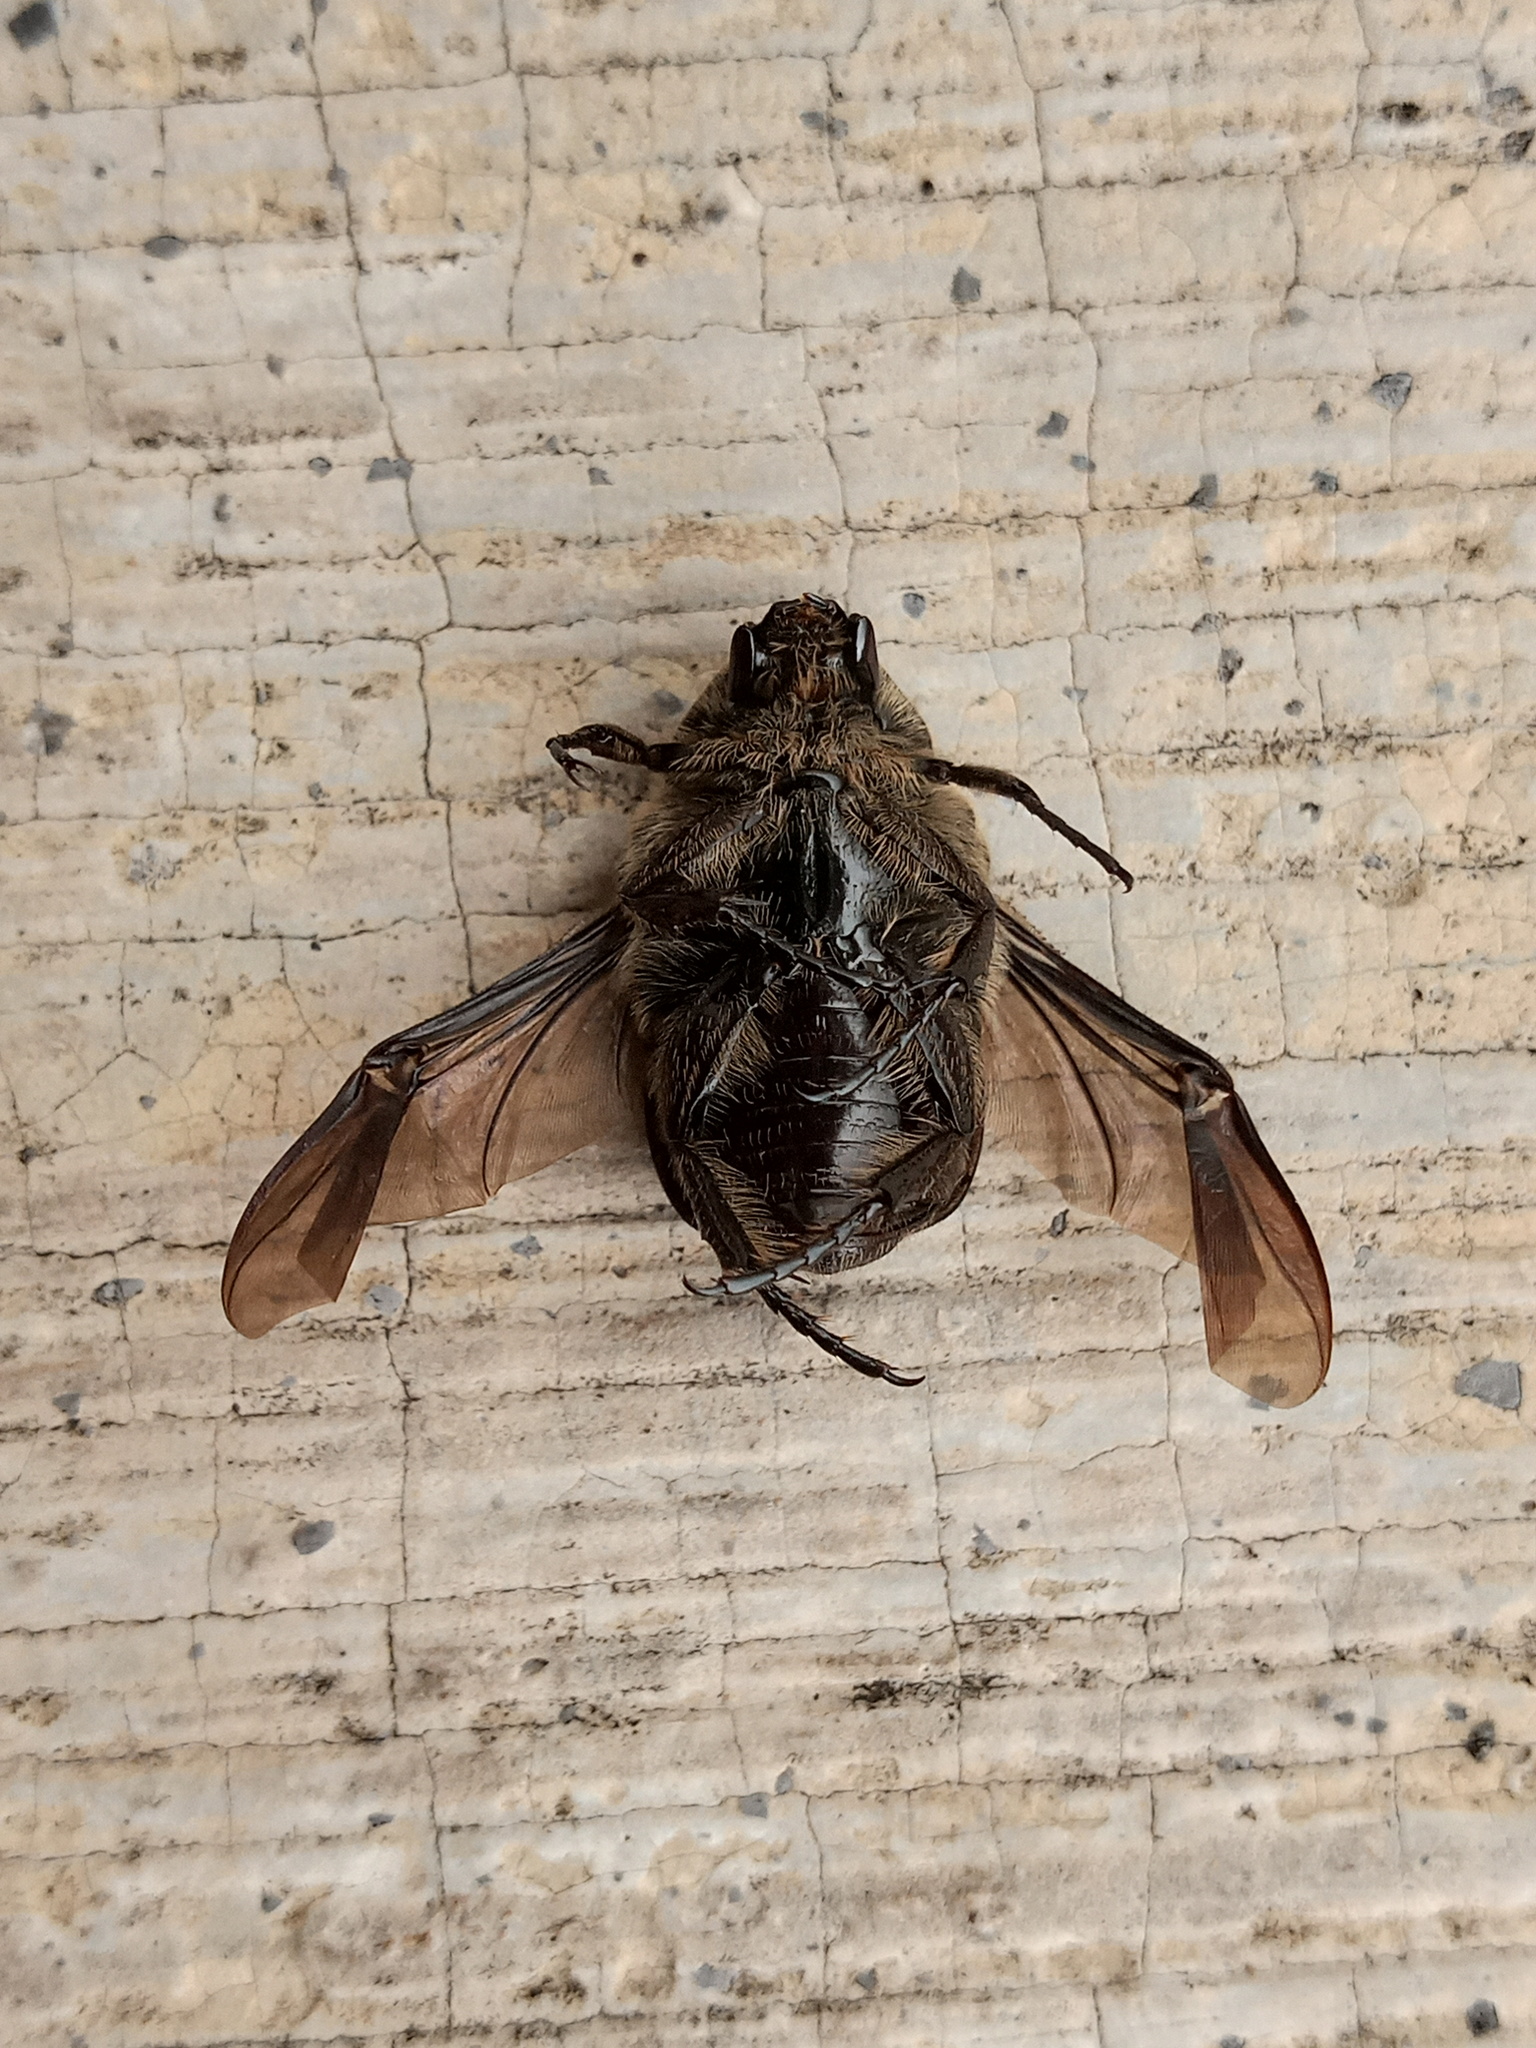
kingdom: Animalia
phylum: Arthropoda
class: Insecta
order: Coleoptera
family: Scarabaeidae
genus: Euphoria
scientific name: Euphoria schotti
